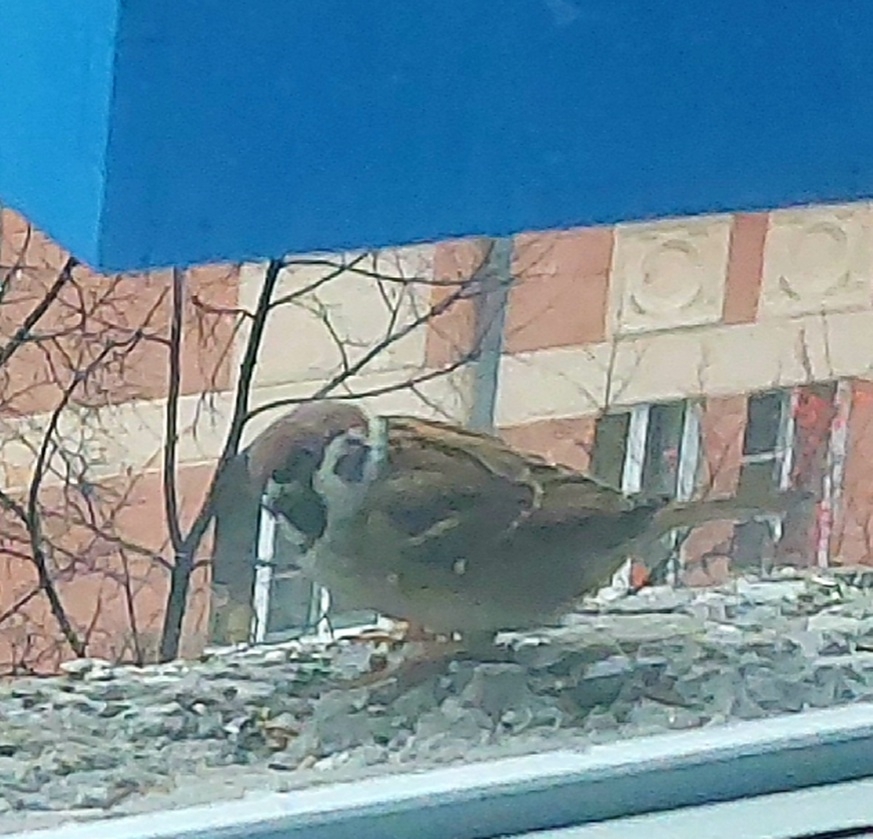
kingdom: Animalia
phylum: Chordata
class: Aves
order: Passeriformes
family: Passeridae
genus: Passer
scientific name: Passer montanus
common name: Eurasian tree sparrow
